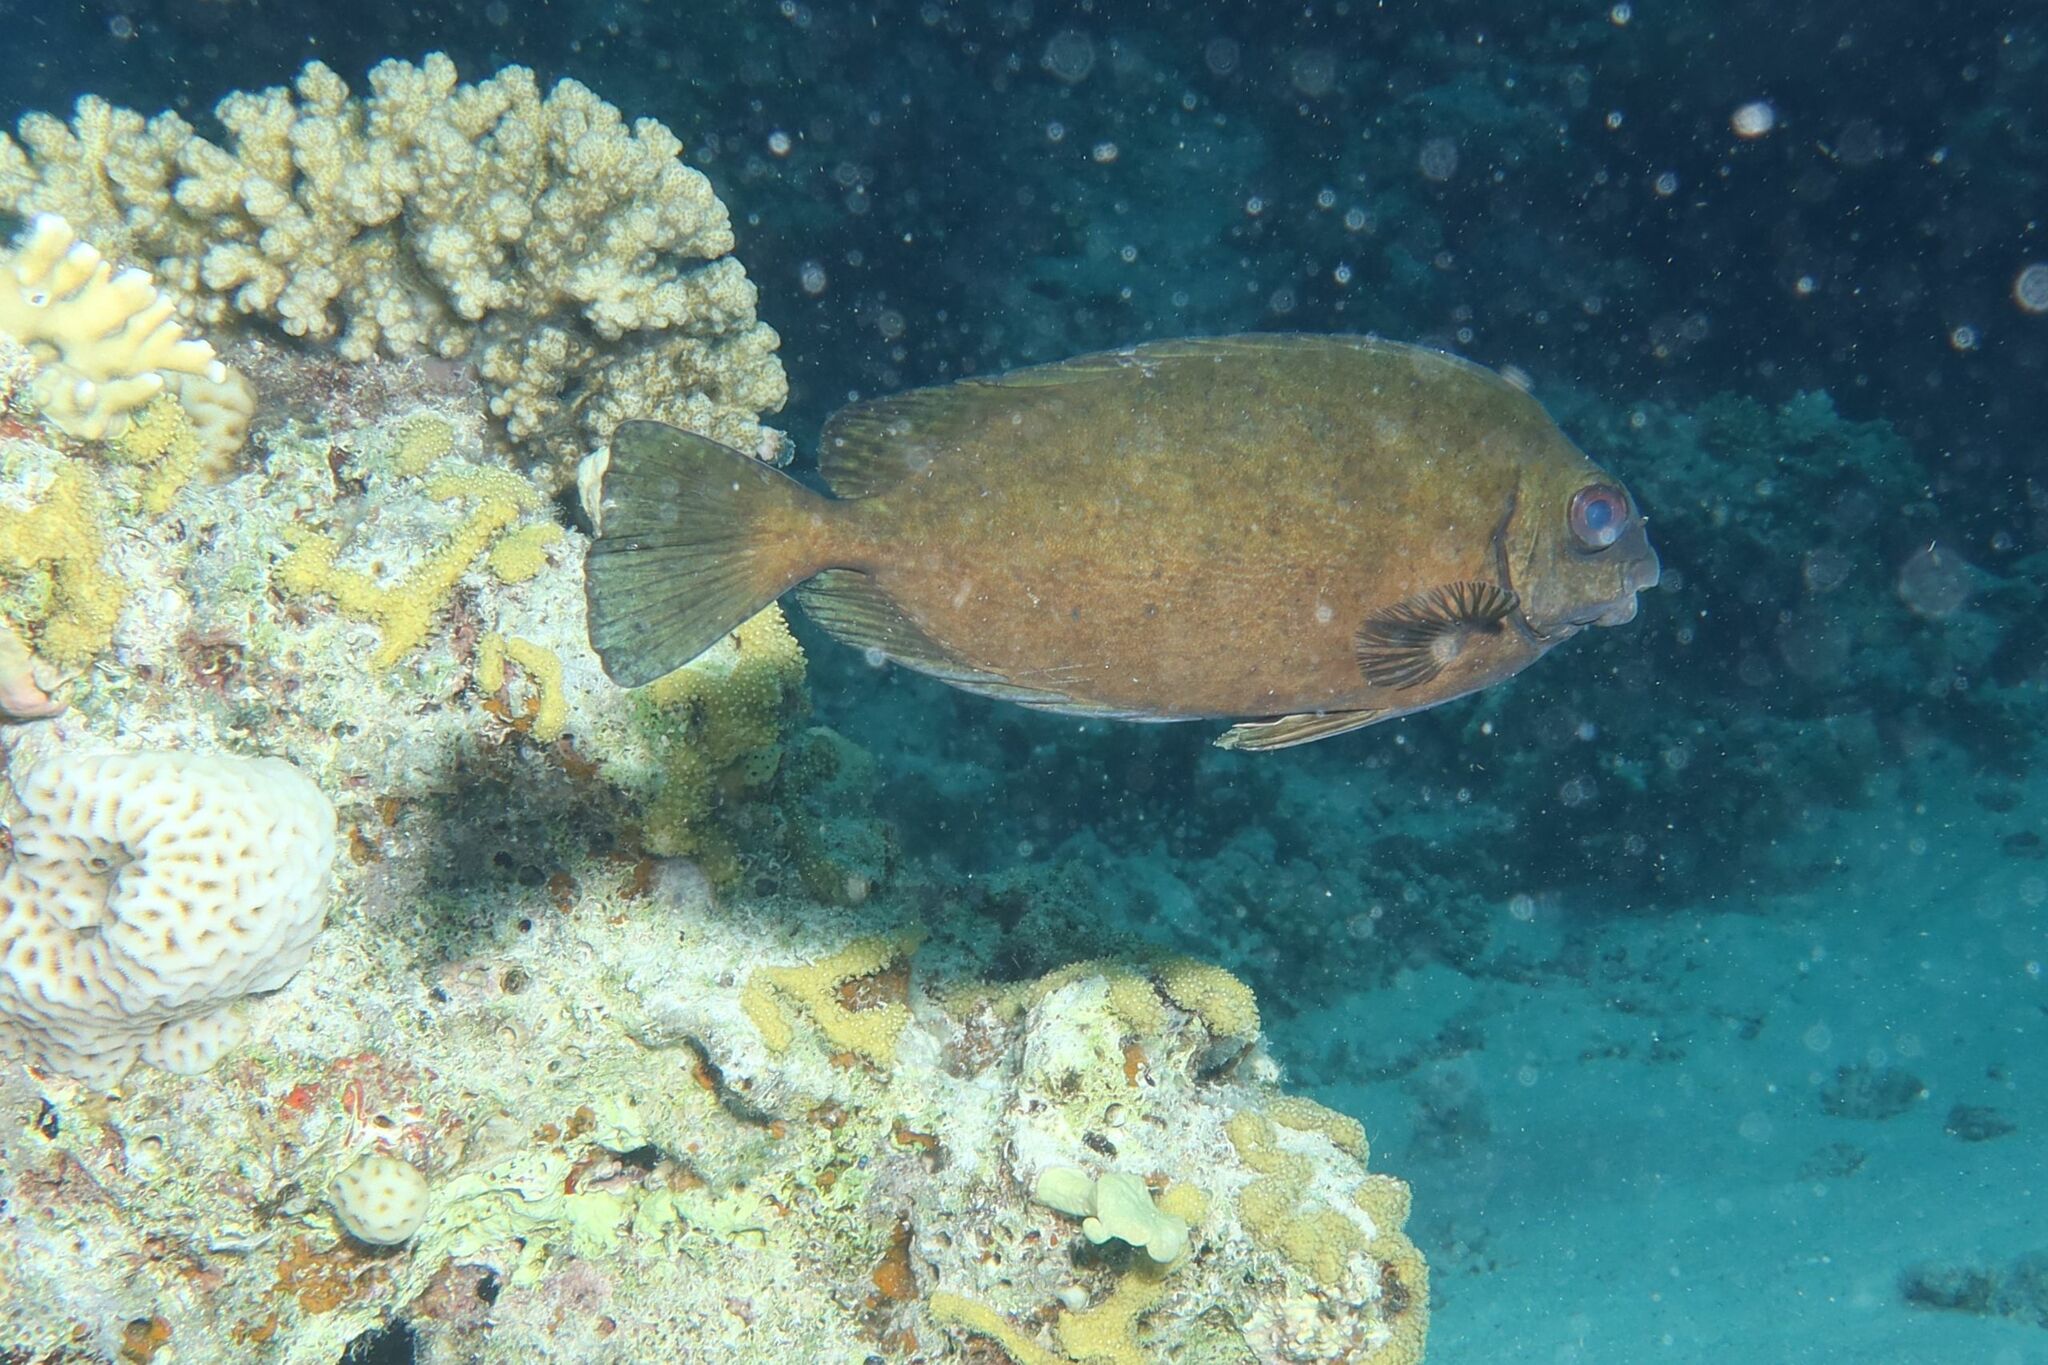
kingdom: Animalia
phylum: Chordata
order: Perciformes
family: Siganidae
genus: Siganus
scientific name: Siganus luridus
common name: Dusky spinefoot
